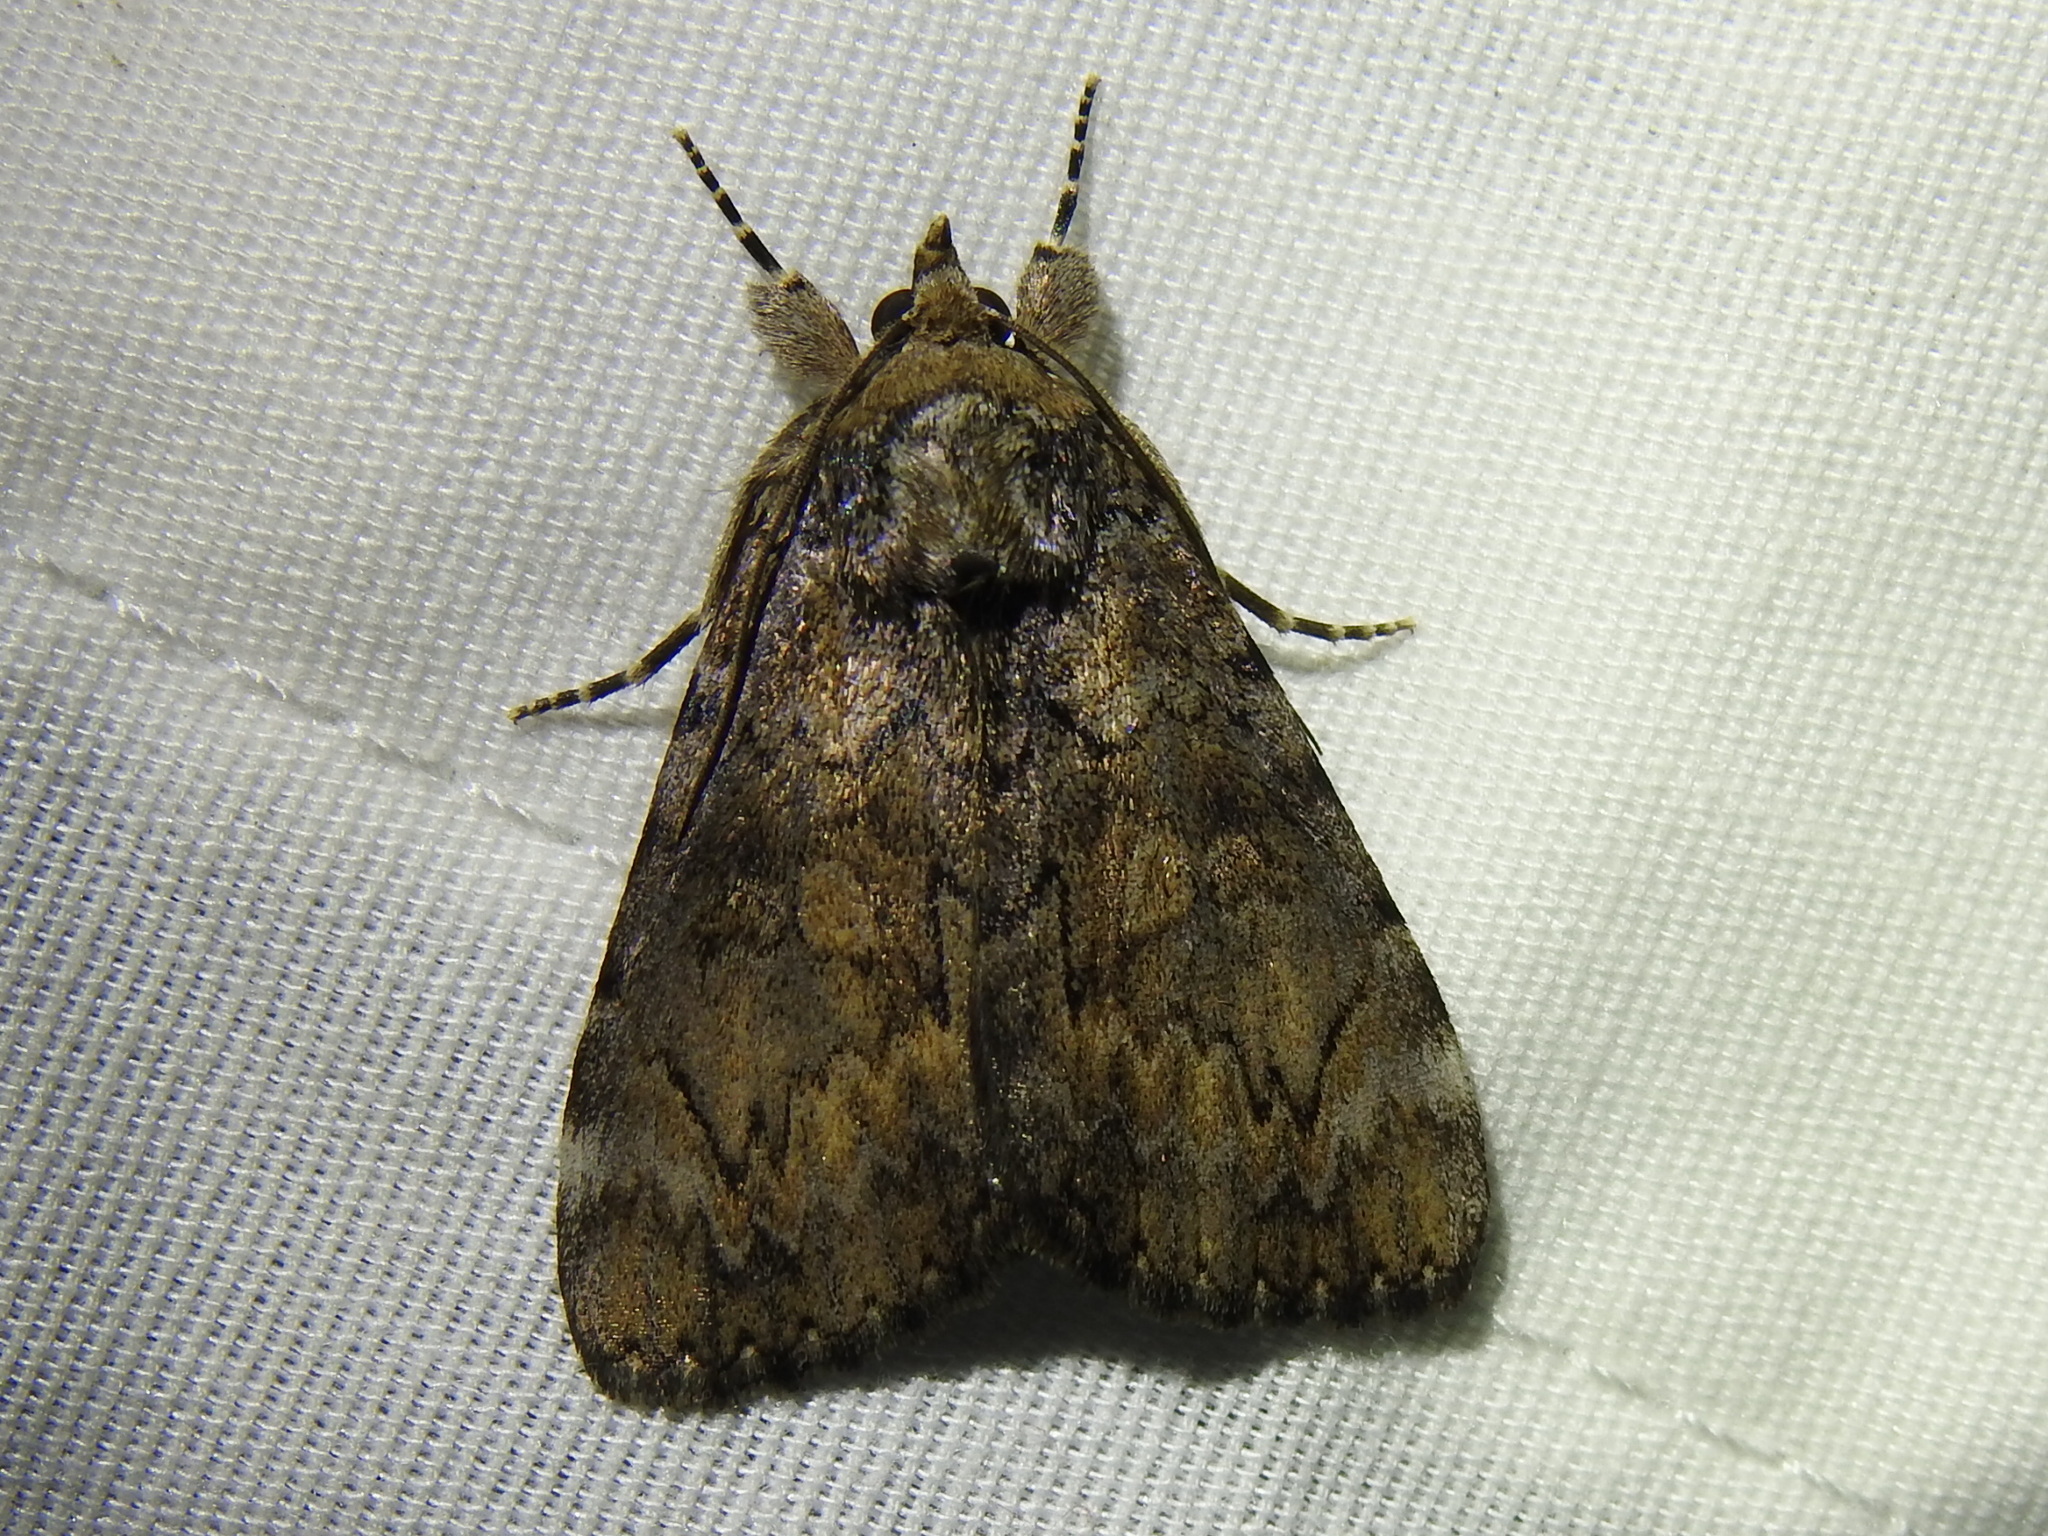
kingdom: Animalia
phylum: Arthropoda
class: Insecta
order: Lepidoptera
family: Erebidae
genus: Catocala
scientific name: Catocala minuta
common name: Little underwing
